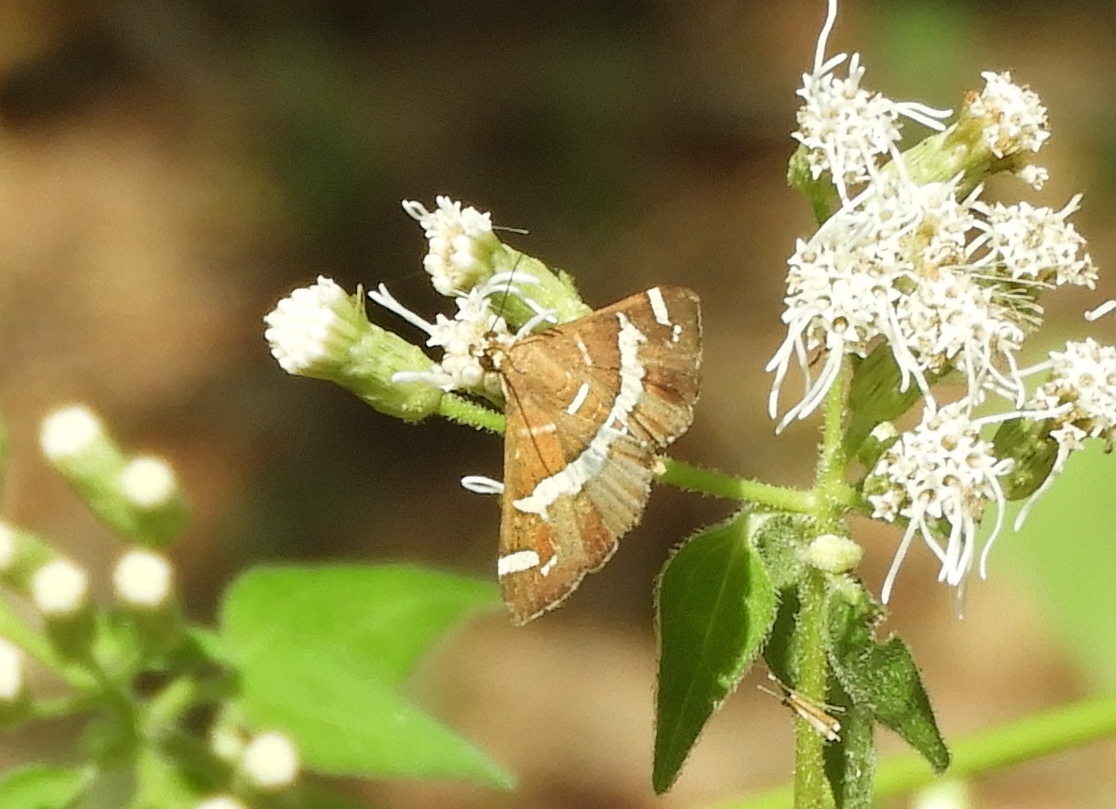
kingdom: Animalia
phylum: Arthropoda
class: Insecta
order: Lepidoptera
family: Crambidae
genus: Spoladea
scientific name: Spoladea recurvalis
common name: Beet webworm moth
